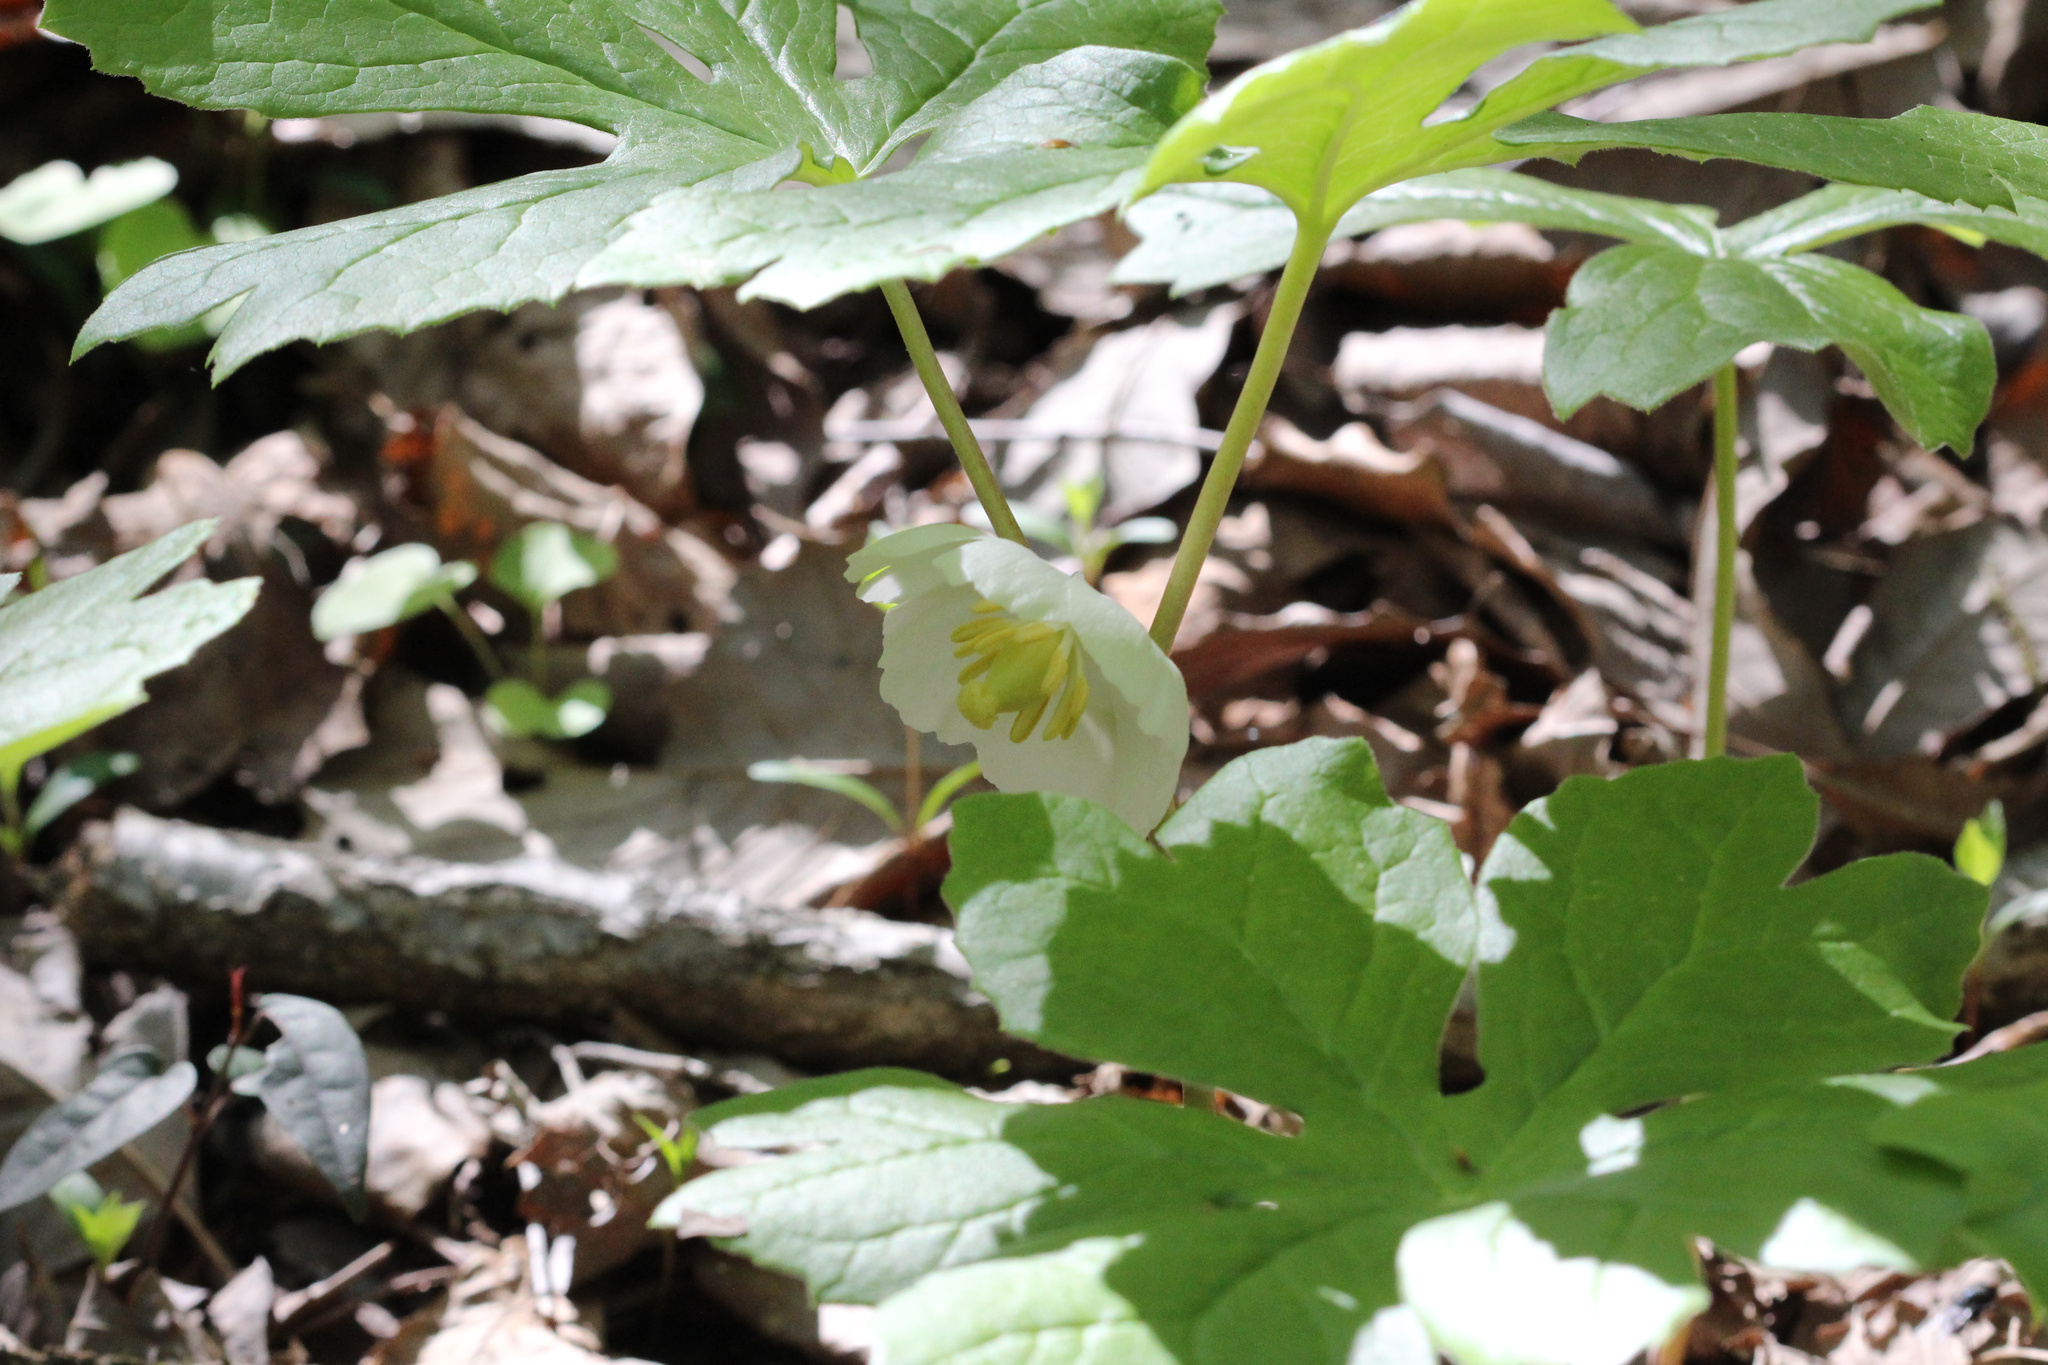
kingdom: Plantae
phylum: Tracheophyta
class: Magnoliopsida
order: Ranunculales
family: Berberidaceae
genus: Podophyllum
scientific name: Podophyllum peltatum
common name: Wild mandrake
